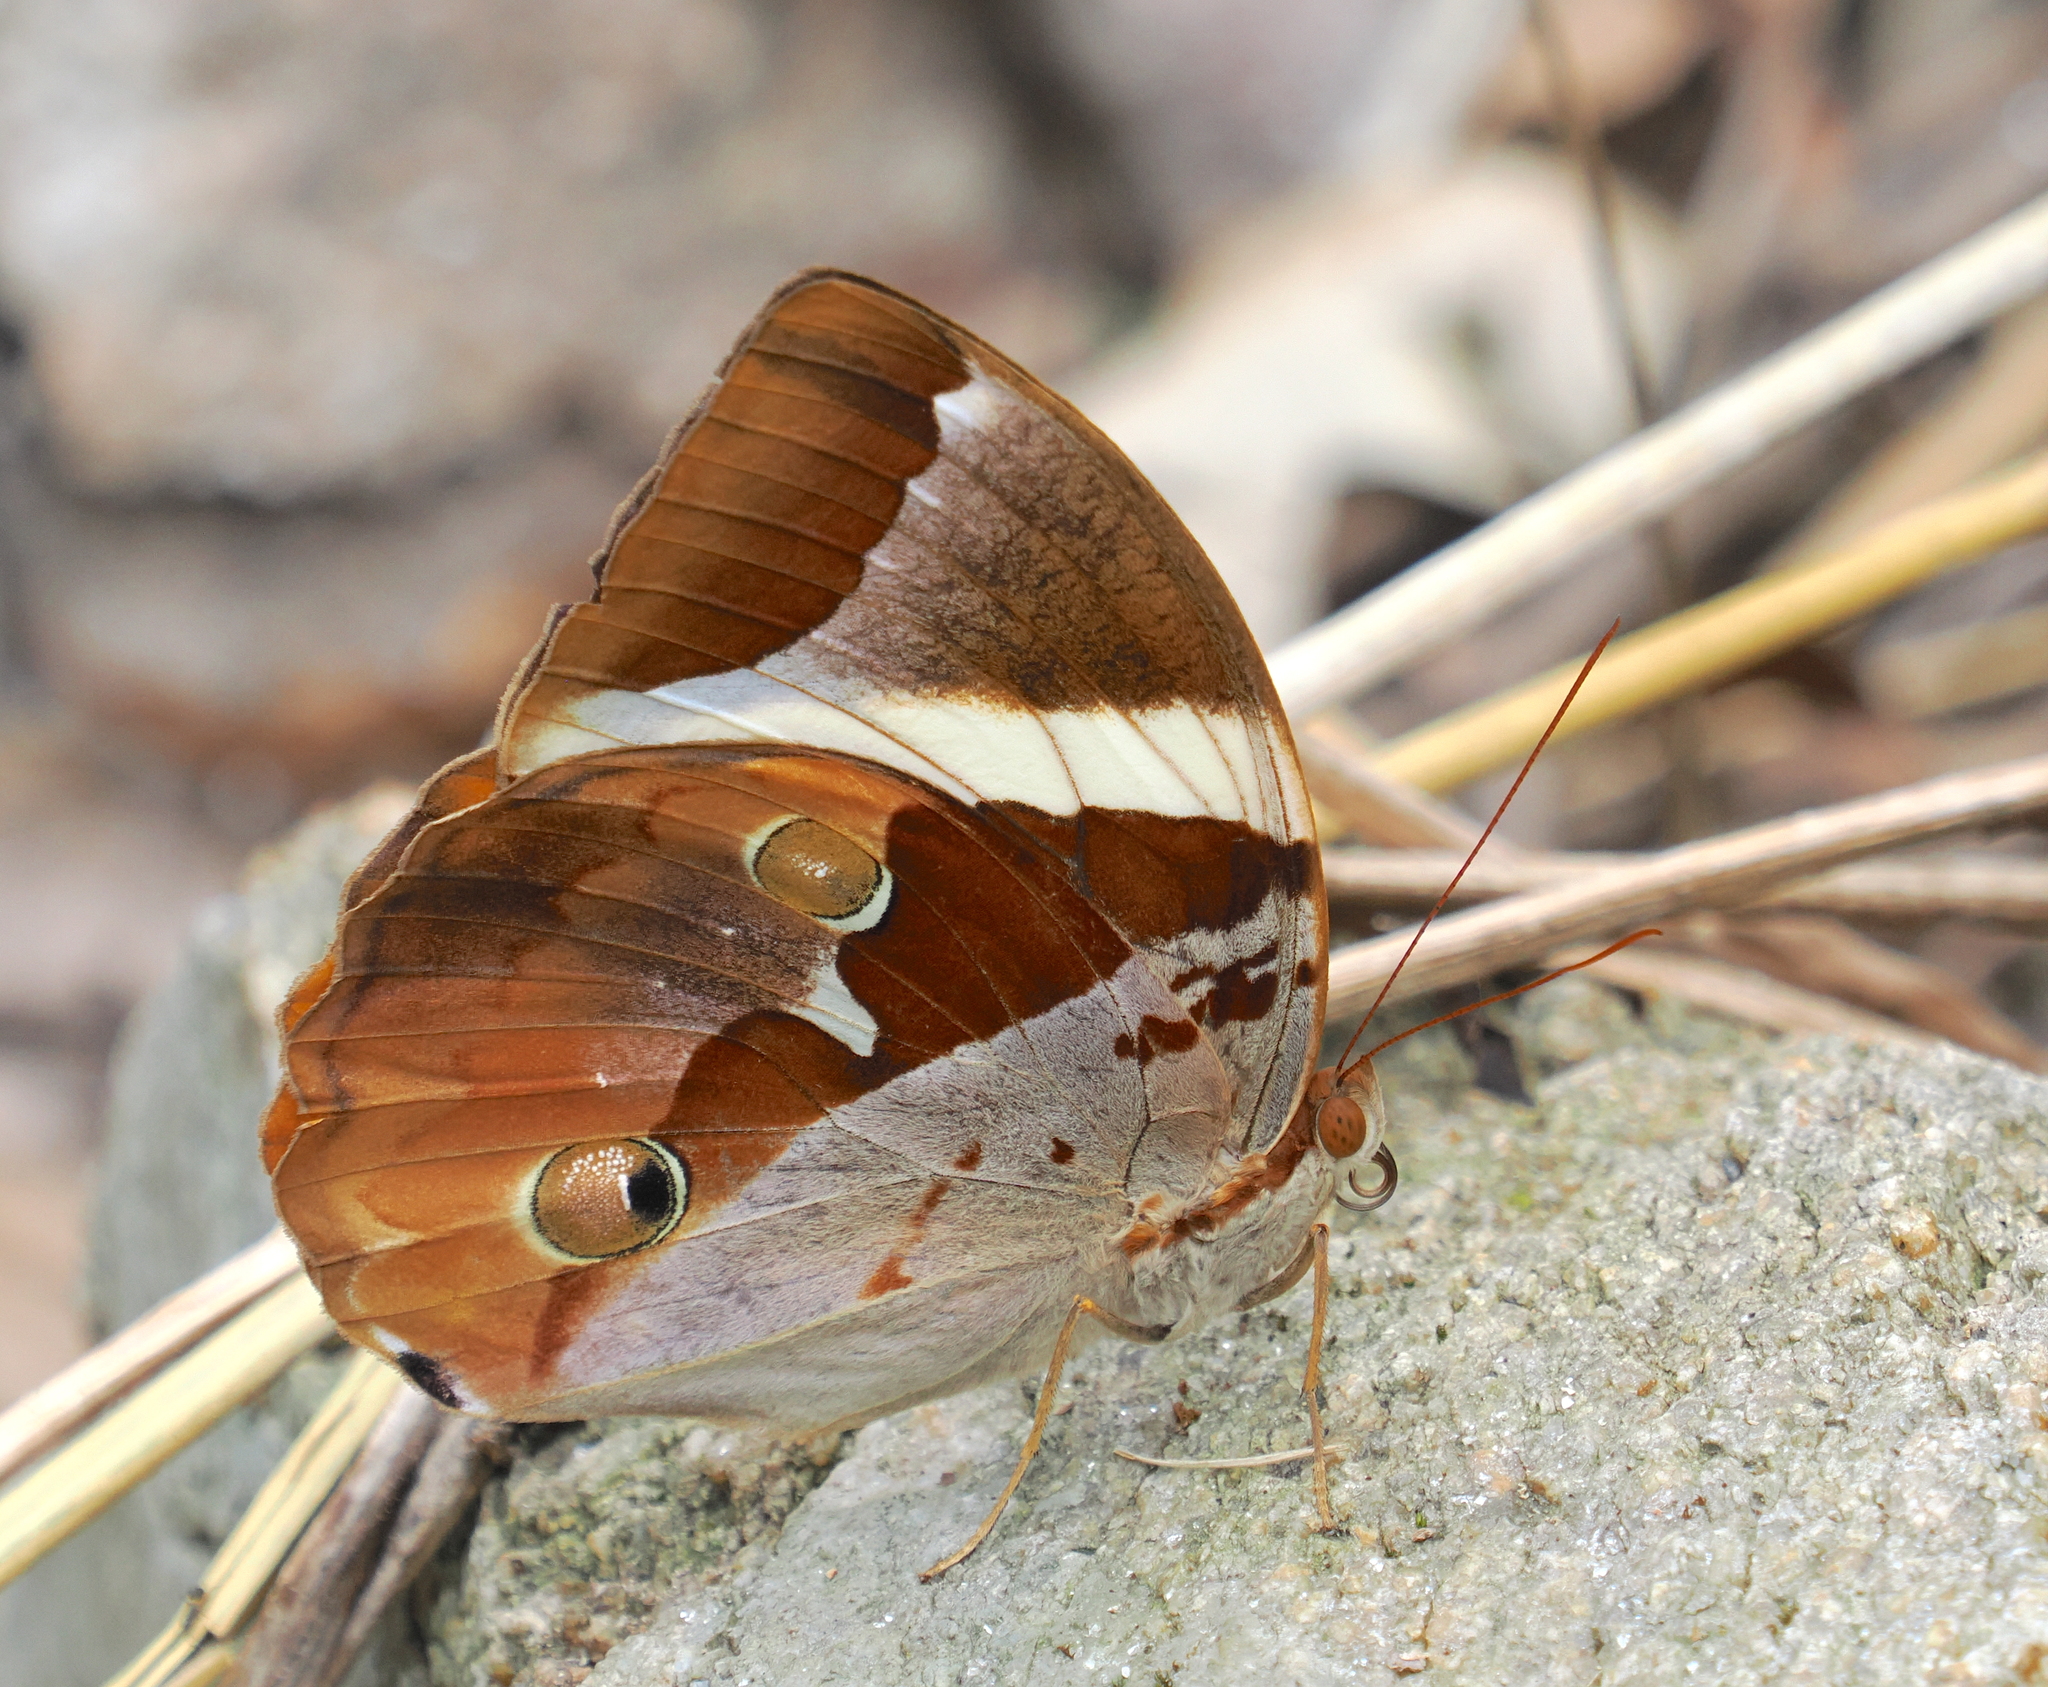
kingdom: Animalia
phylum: Arthropoda
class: Insecta
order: Lepidoptera
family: Nymphalidae
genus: Thauria
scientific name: Thauria aliris
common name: Tufted jungle king
